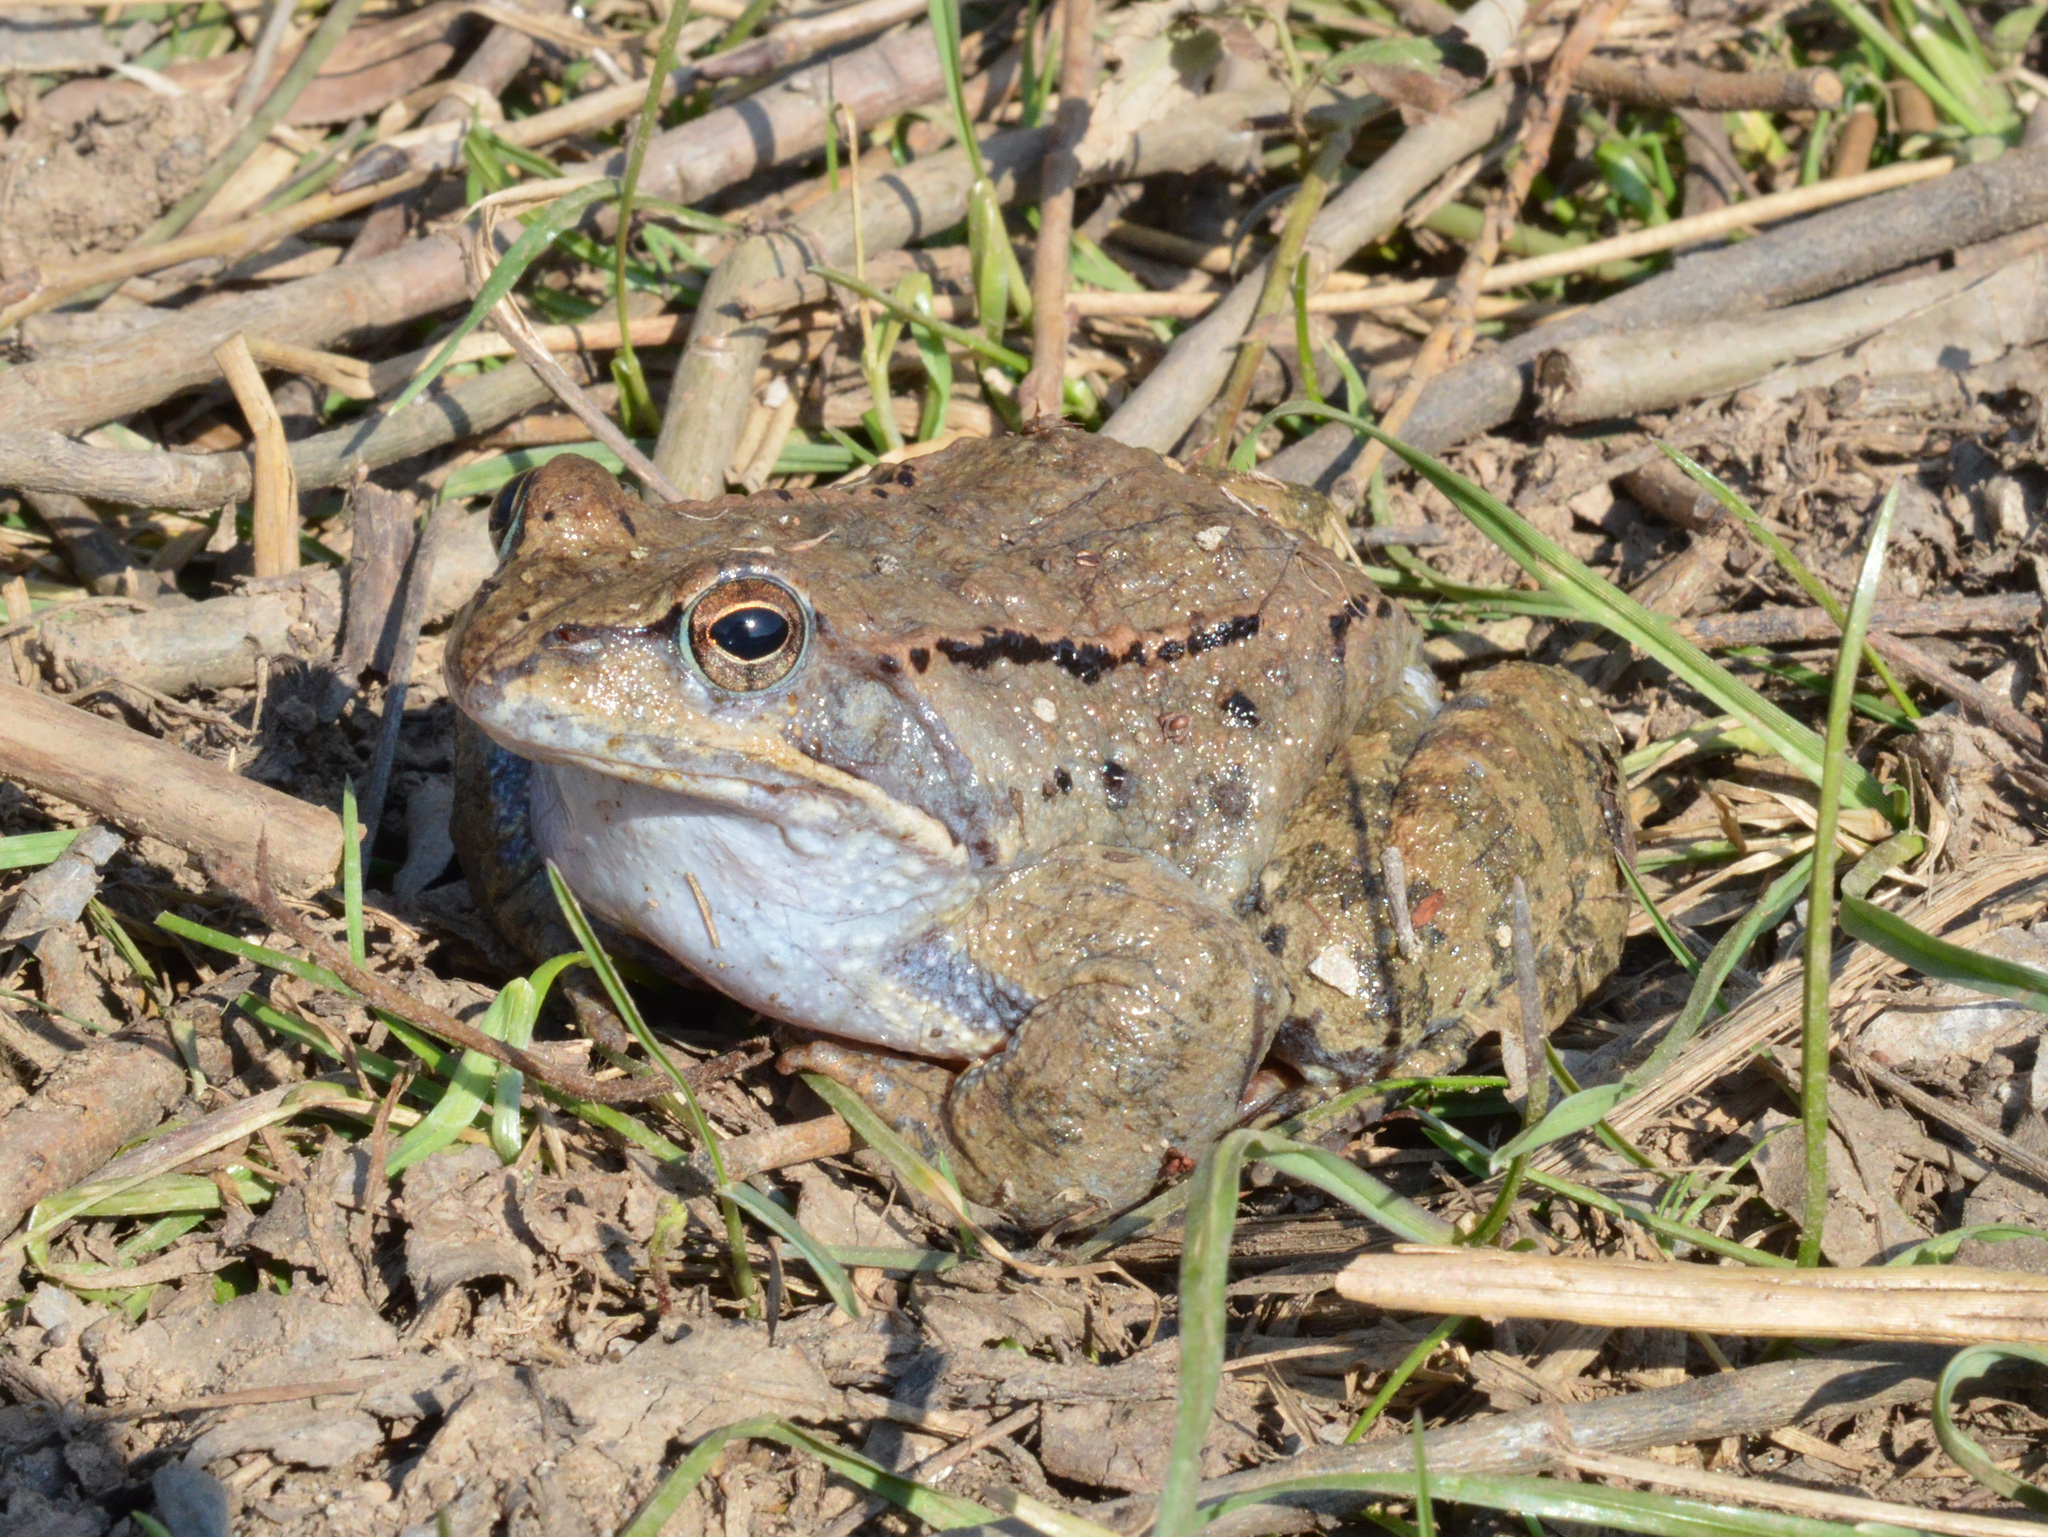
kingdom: Animalia
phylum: Chordata
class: Amphibia
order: Anura
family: Ranidae
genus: Rana
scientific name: Rana temporaria
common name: Common frog
